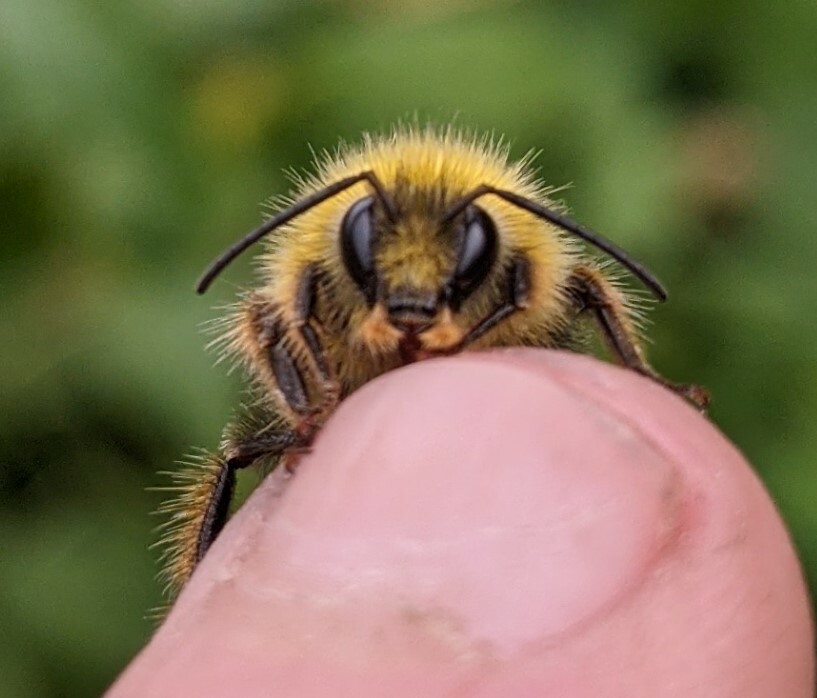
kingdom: Animalia
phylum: Arthropoda
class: Insecta
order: Hymenoptera
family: Apidae
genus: Bombus
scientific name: Bombus pratorum
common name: Early humble-bee
